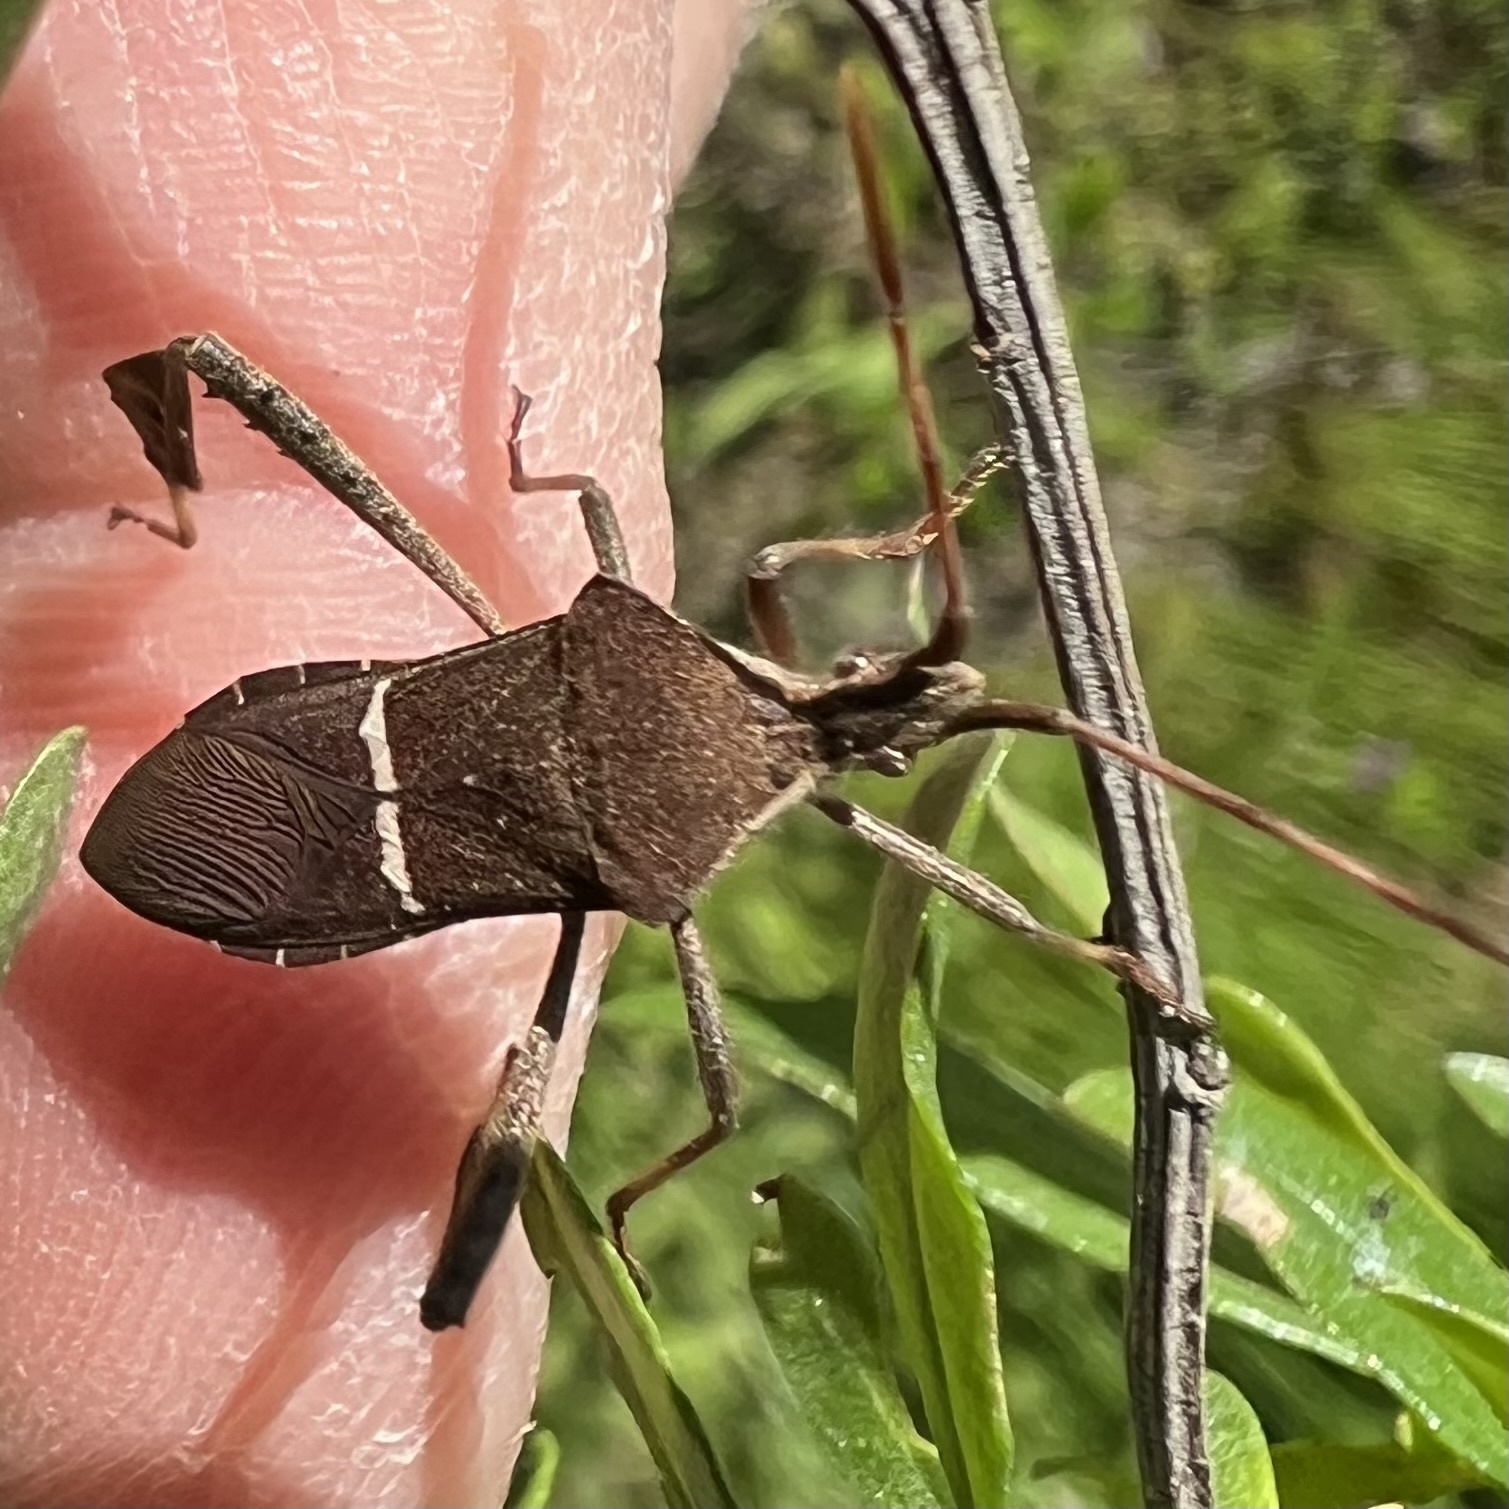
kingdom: Animalia
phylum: Arthropoda
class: Insecta
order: Hemiptera
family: Coreidae
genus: Leptoglossus
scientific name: Leptoglossus phyllopus
